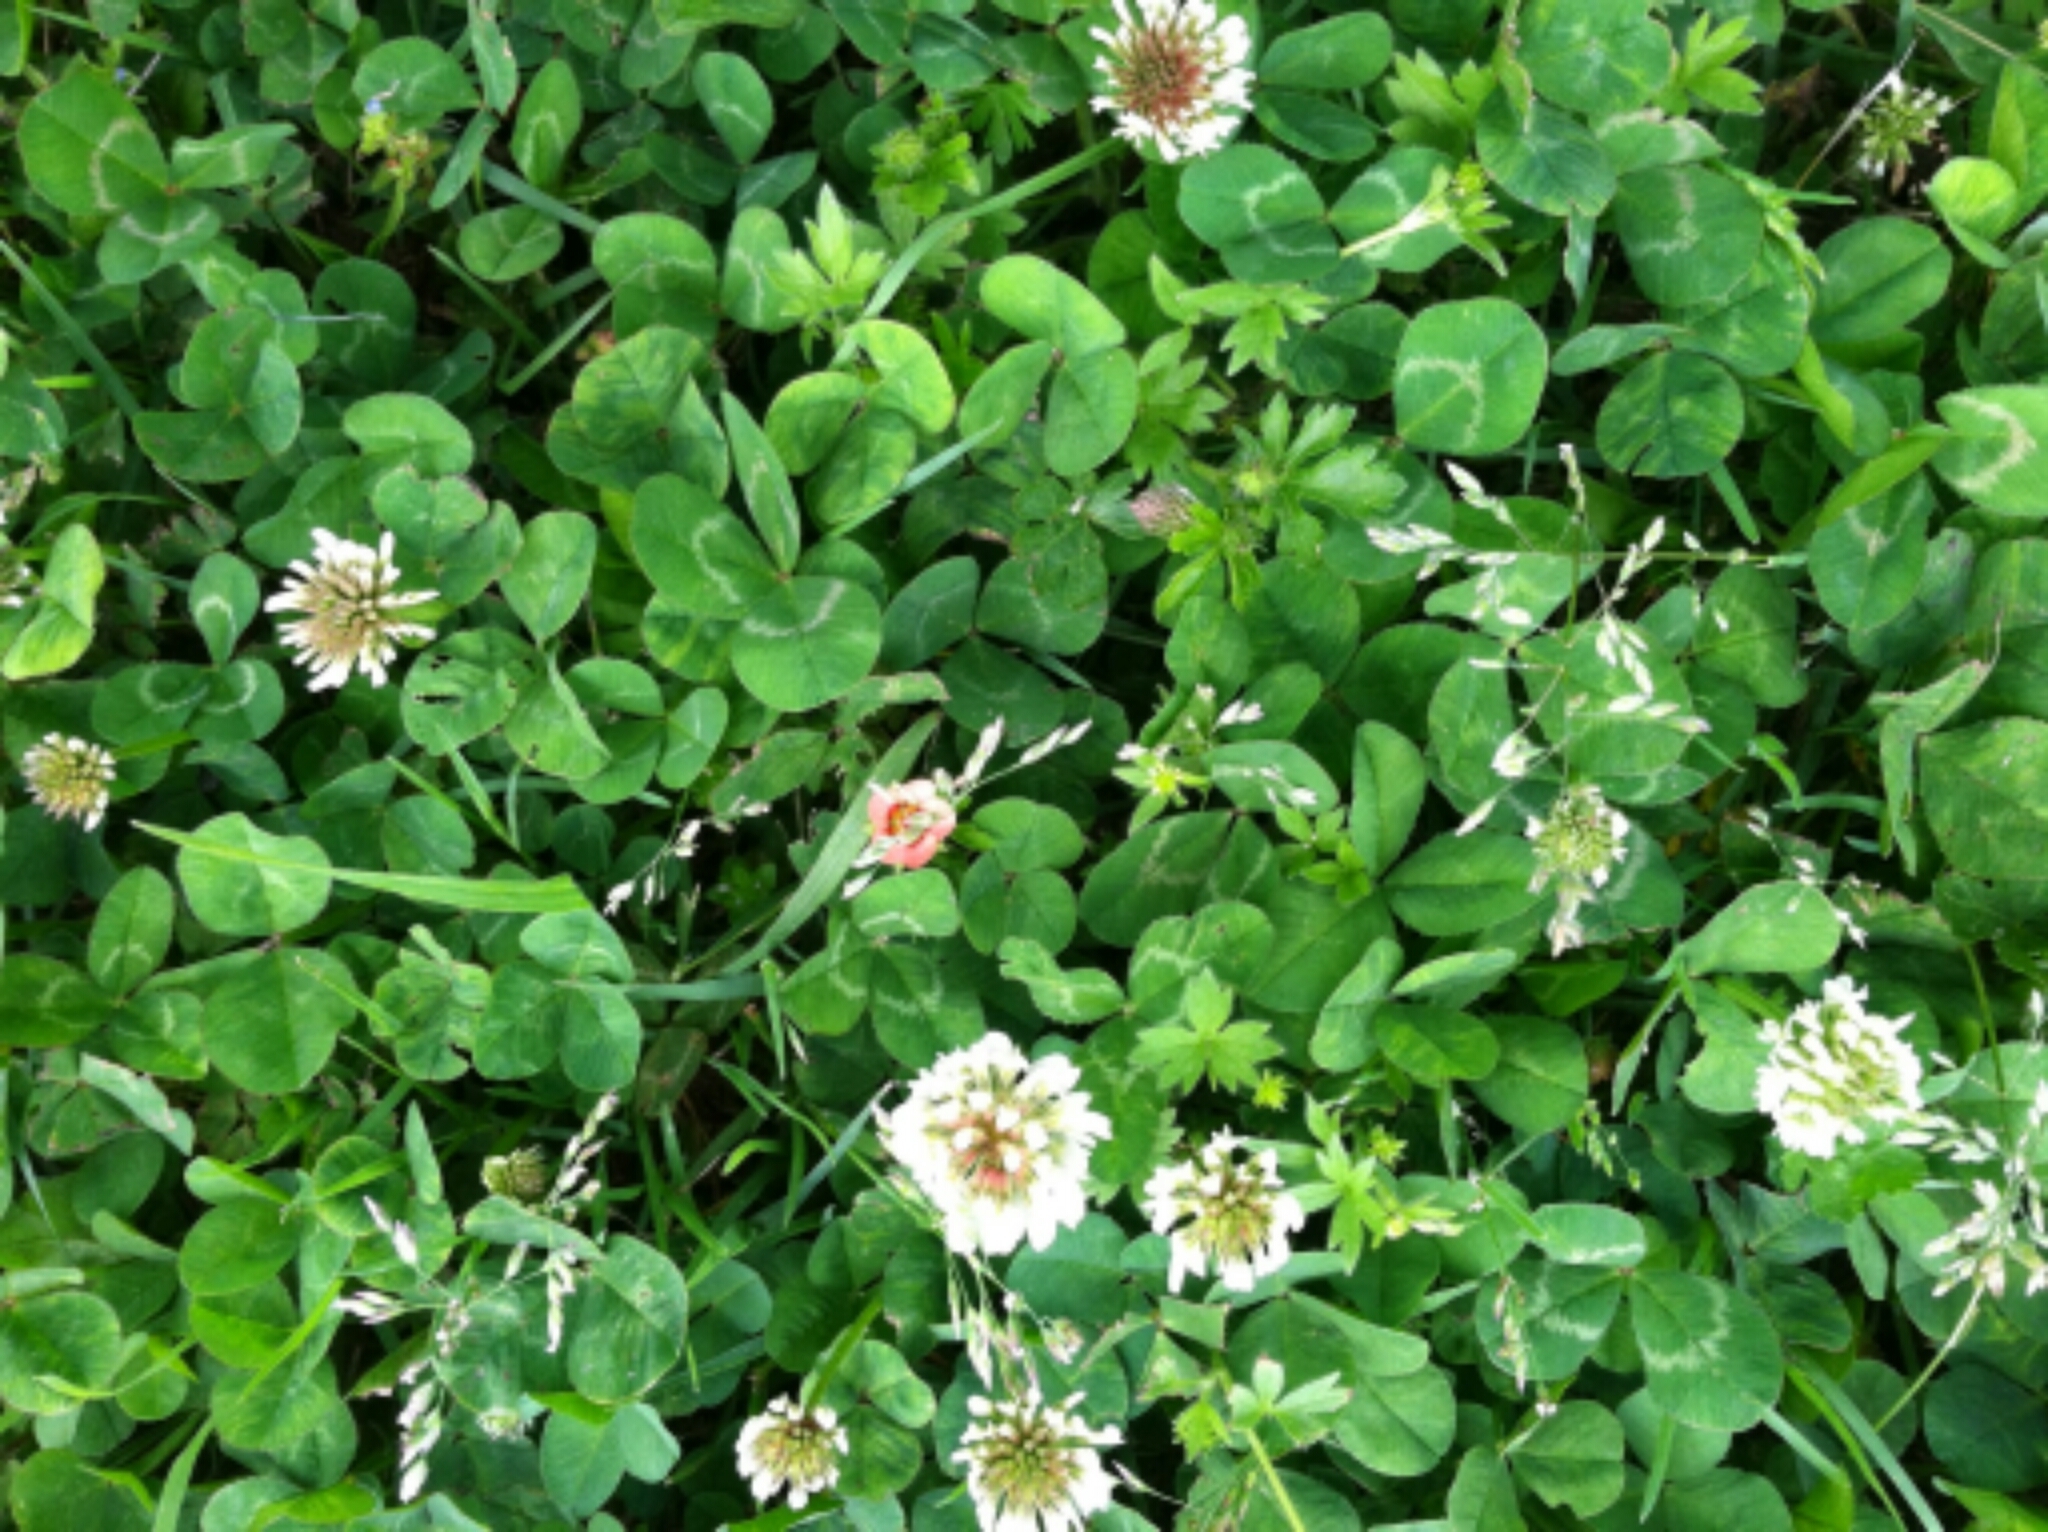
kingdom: Plantae
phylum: Tracheophyta
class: Magnoliopsida
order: Fabales
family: Fabaceae
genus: Trifolium
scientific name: Trifolium repens
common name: White clover
